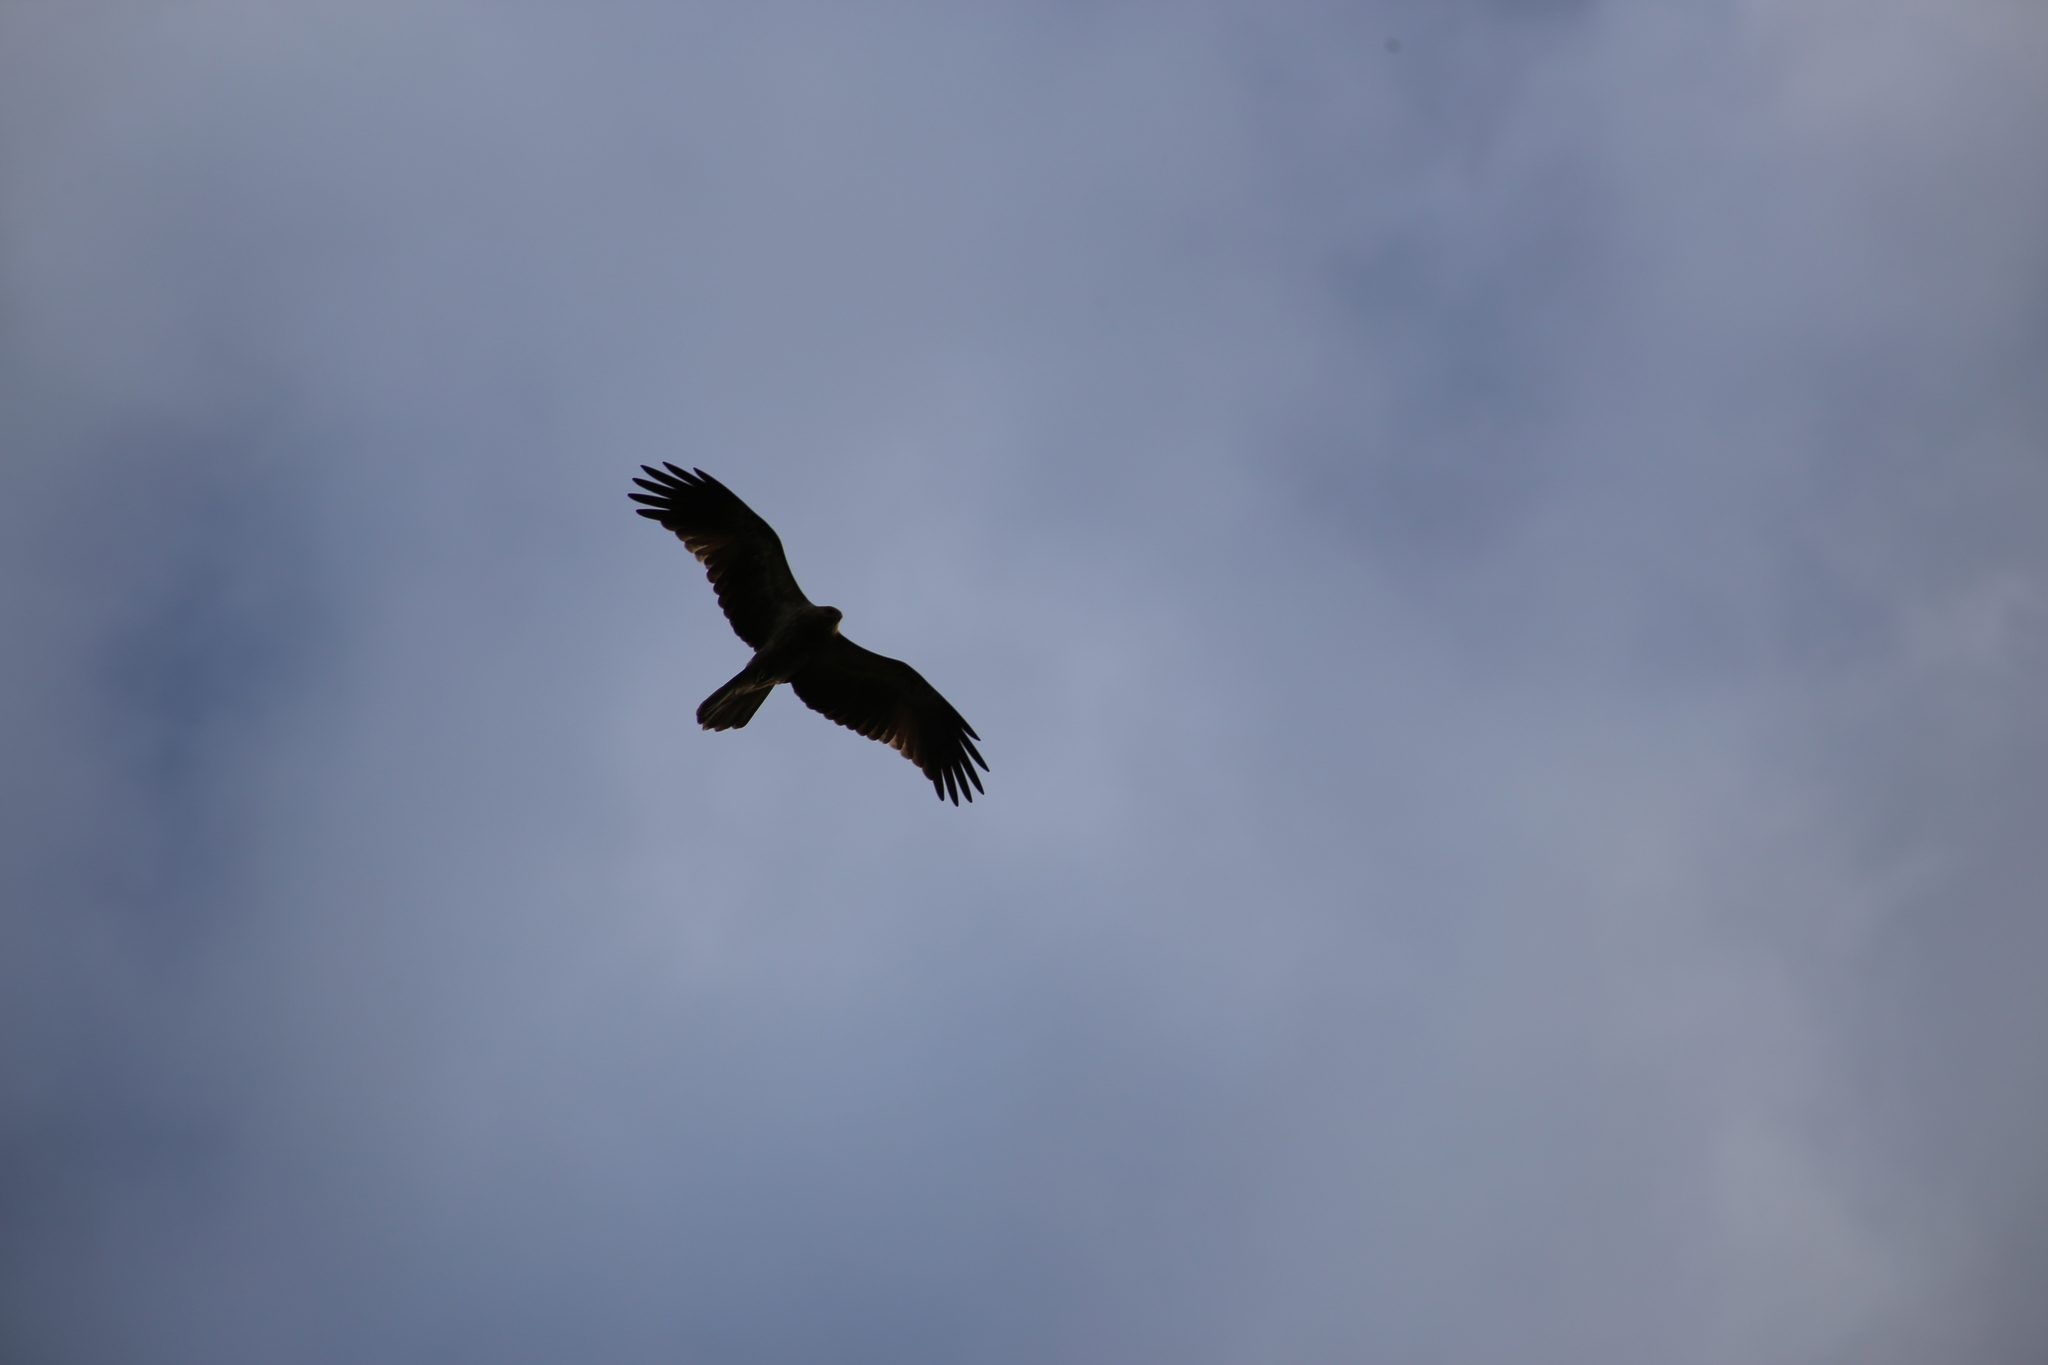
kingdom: Animalia
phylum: Chordata
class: Aves
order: Accipitriformes
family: Accipitridae
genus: Haliastur
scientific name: Haliastur sphenurus
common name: Whistling kite
